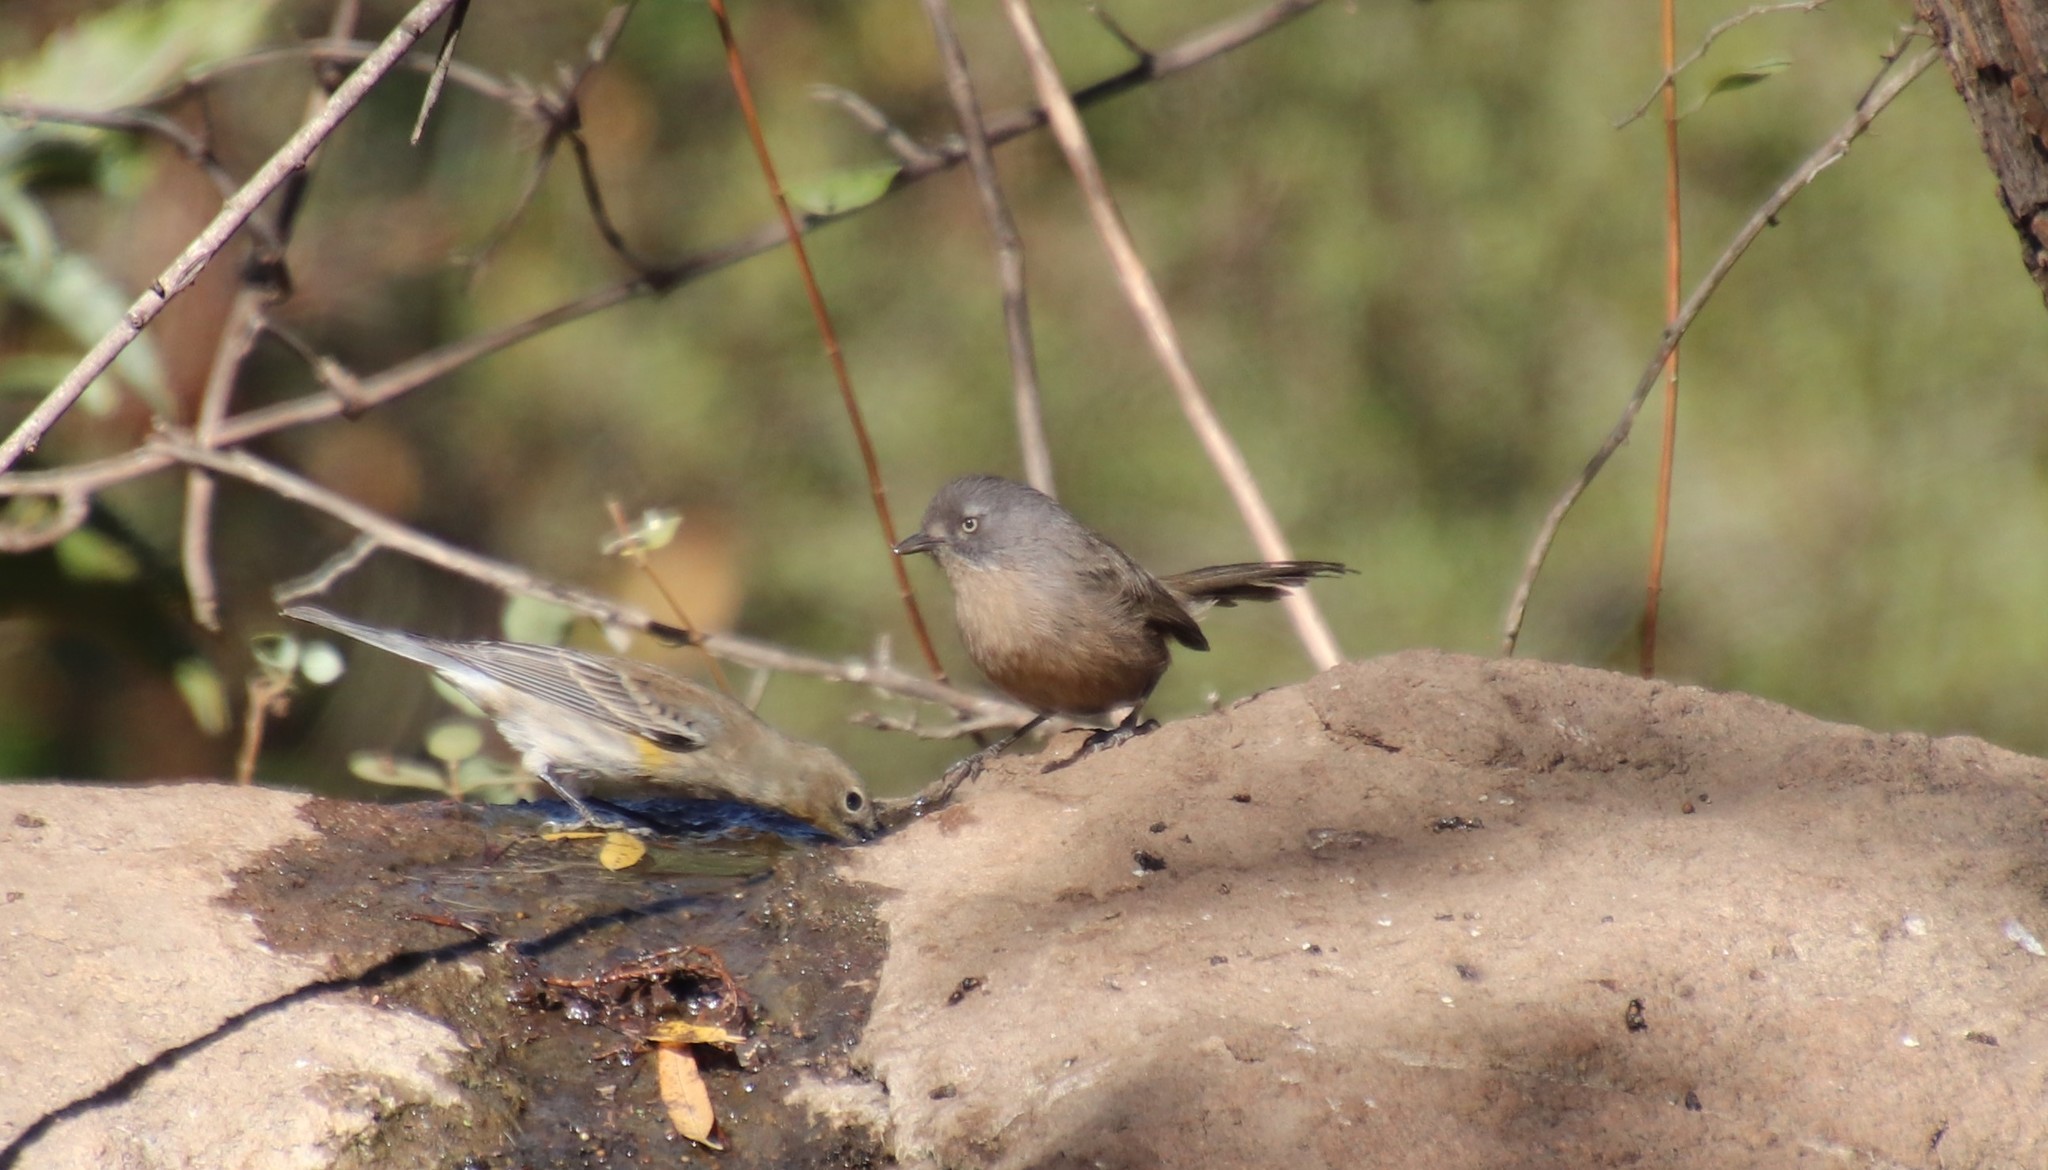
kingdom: Animalia
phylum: Chordata
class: Aves
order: Passeriformes
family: Sylviidae
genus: Chamaea
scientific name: Chamaea fasciata
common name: Wrentit
